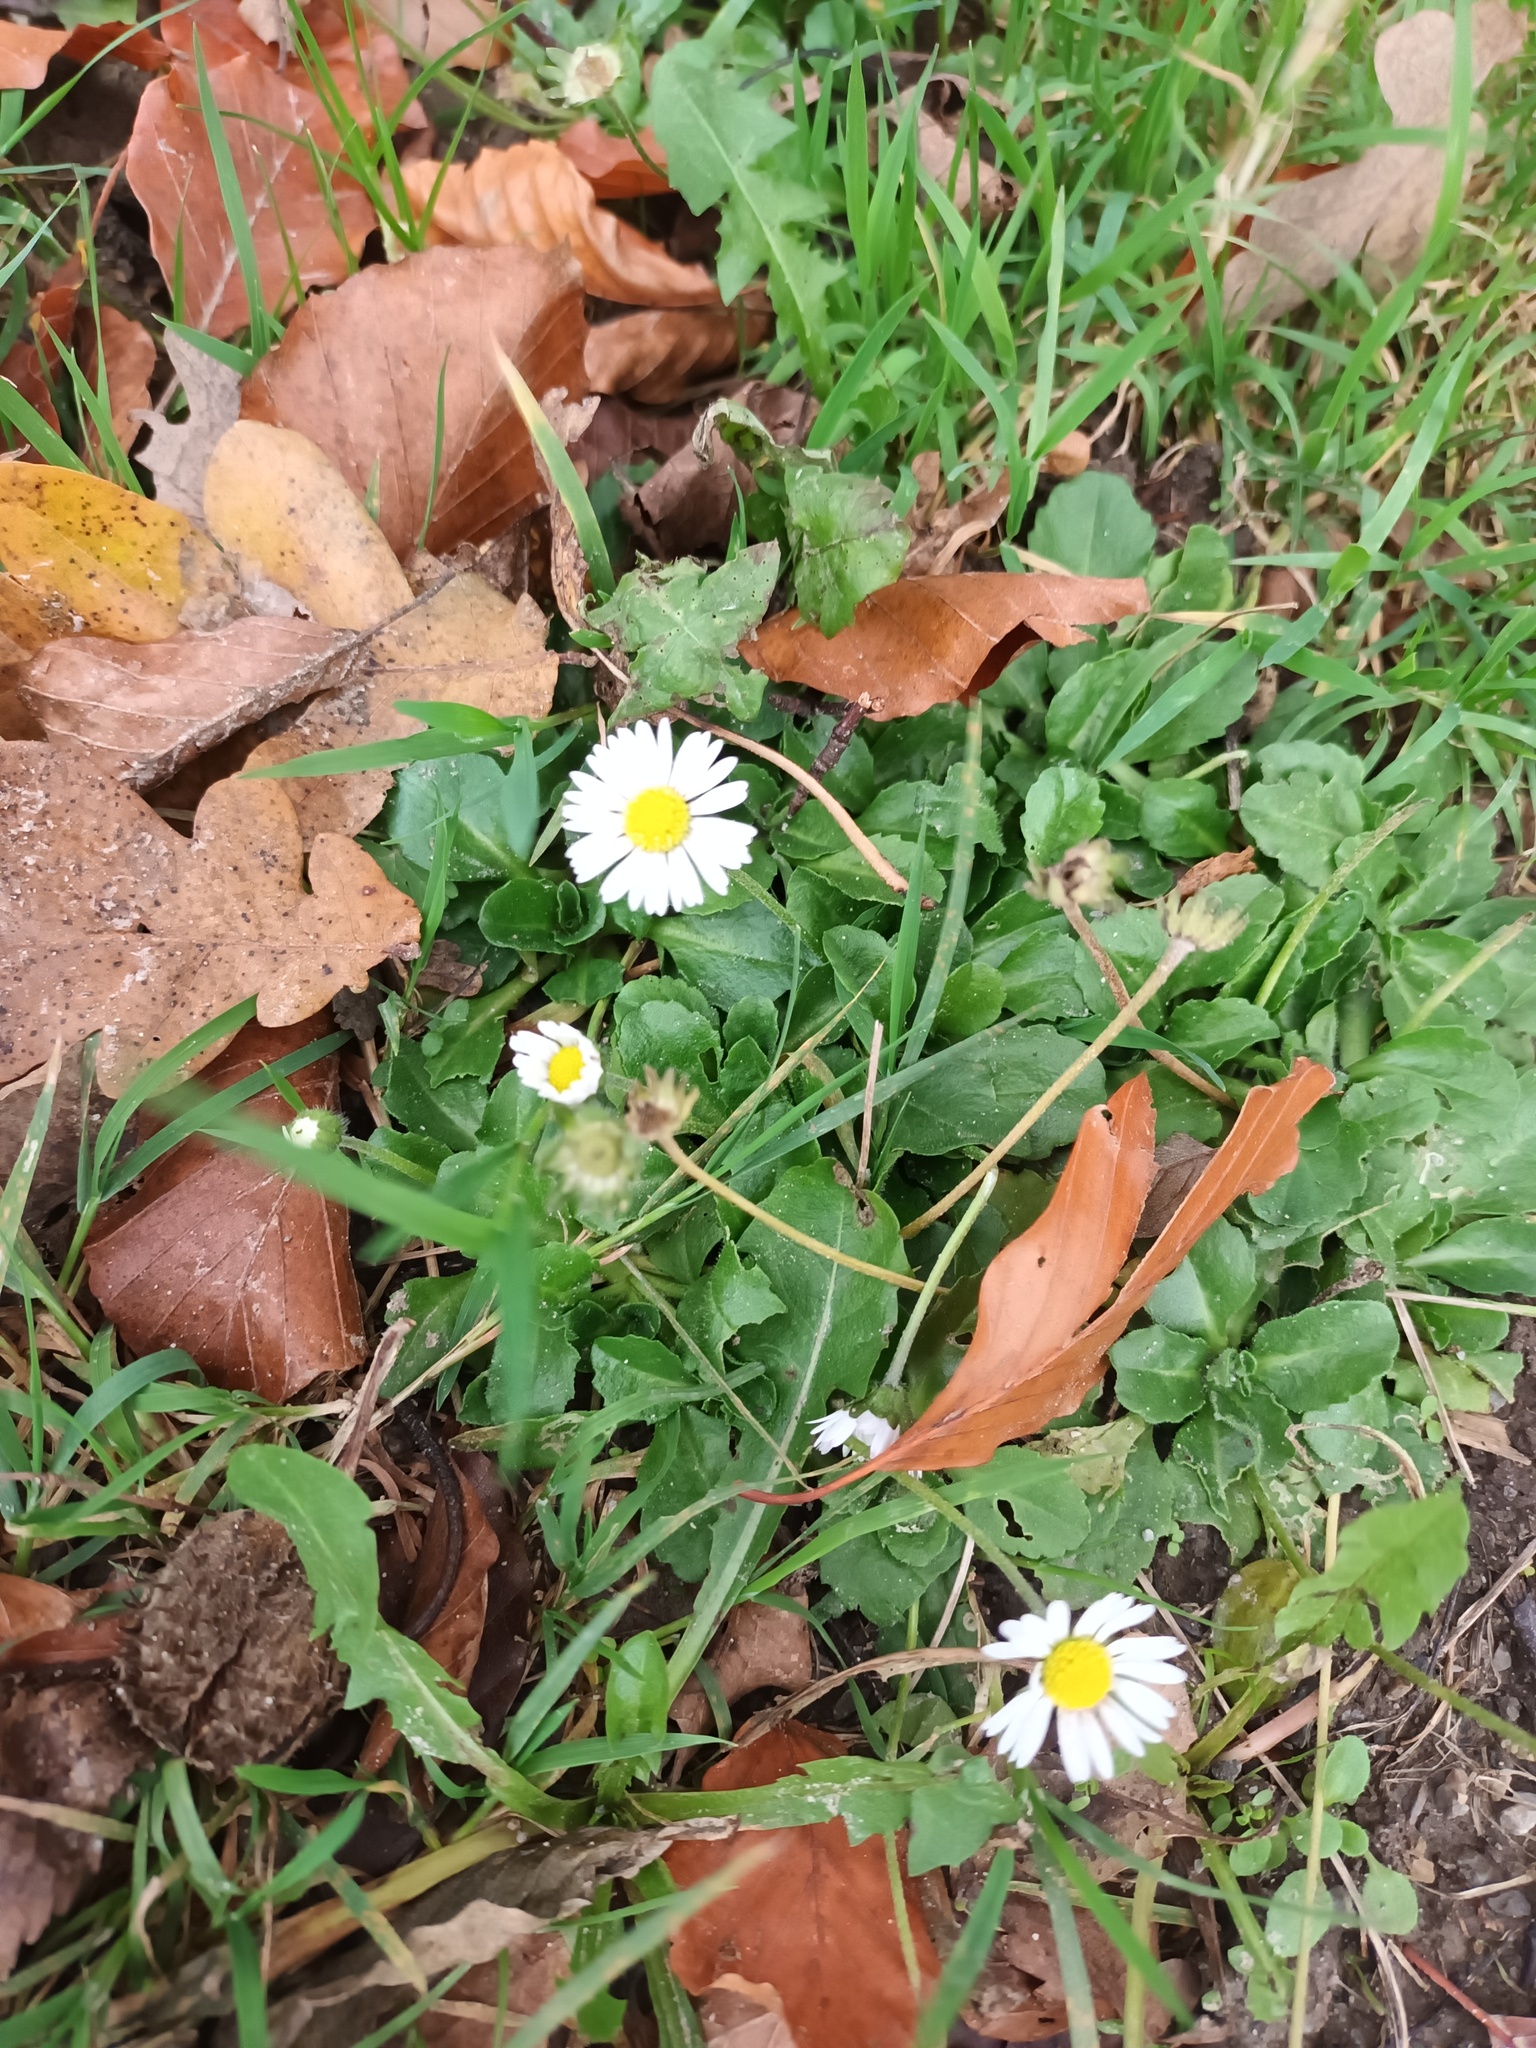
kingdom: Plantae
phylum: Tracheophyta
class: Magnoliopsida
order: Asterales
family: Asteraceae
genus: Bellis
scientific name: Bellis perennis
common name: Lawndaisy
